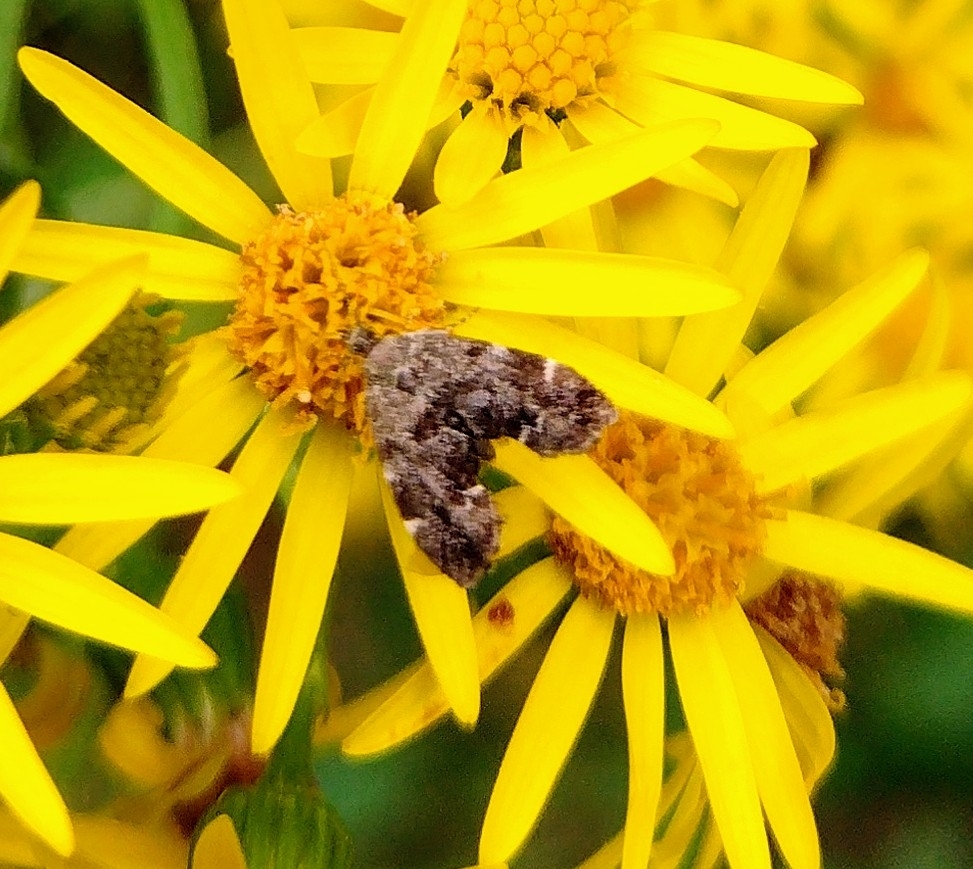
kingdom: Animalia
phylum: Arthropoda
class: Insecta
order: Lepidoptera
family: Choreutidae
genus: Anthophila
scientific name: Anthophila fabriciana
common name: Nettle-tap
